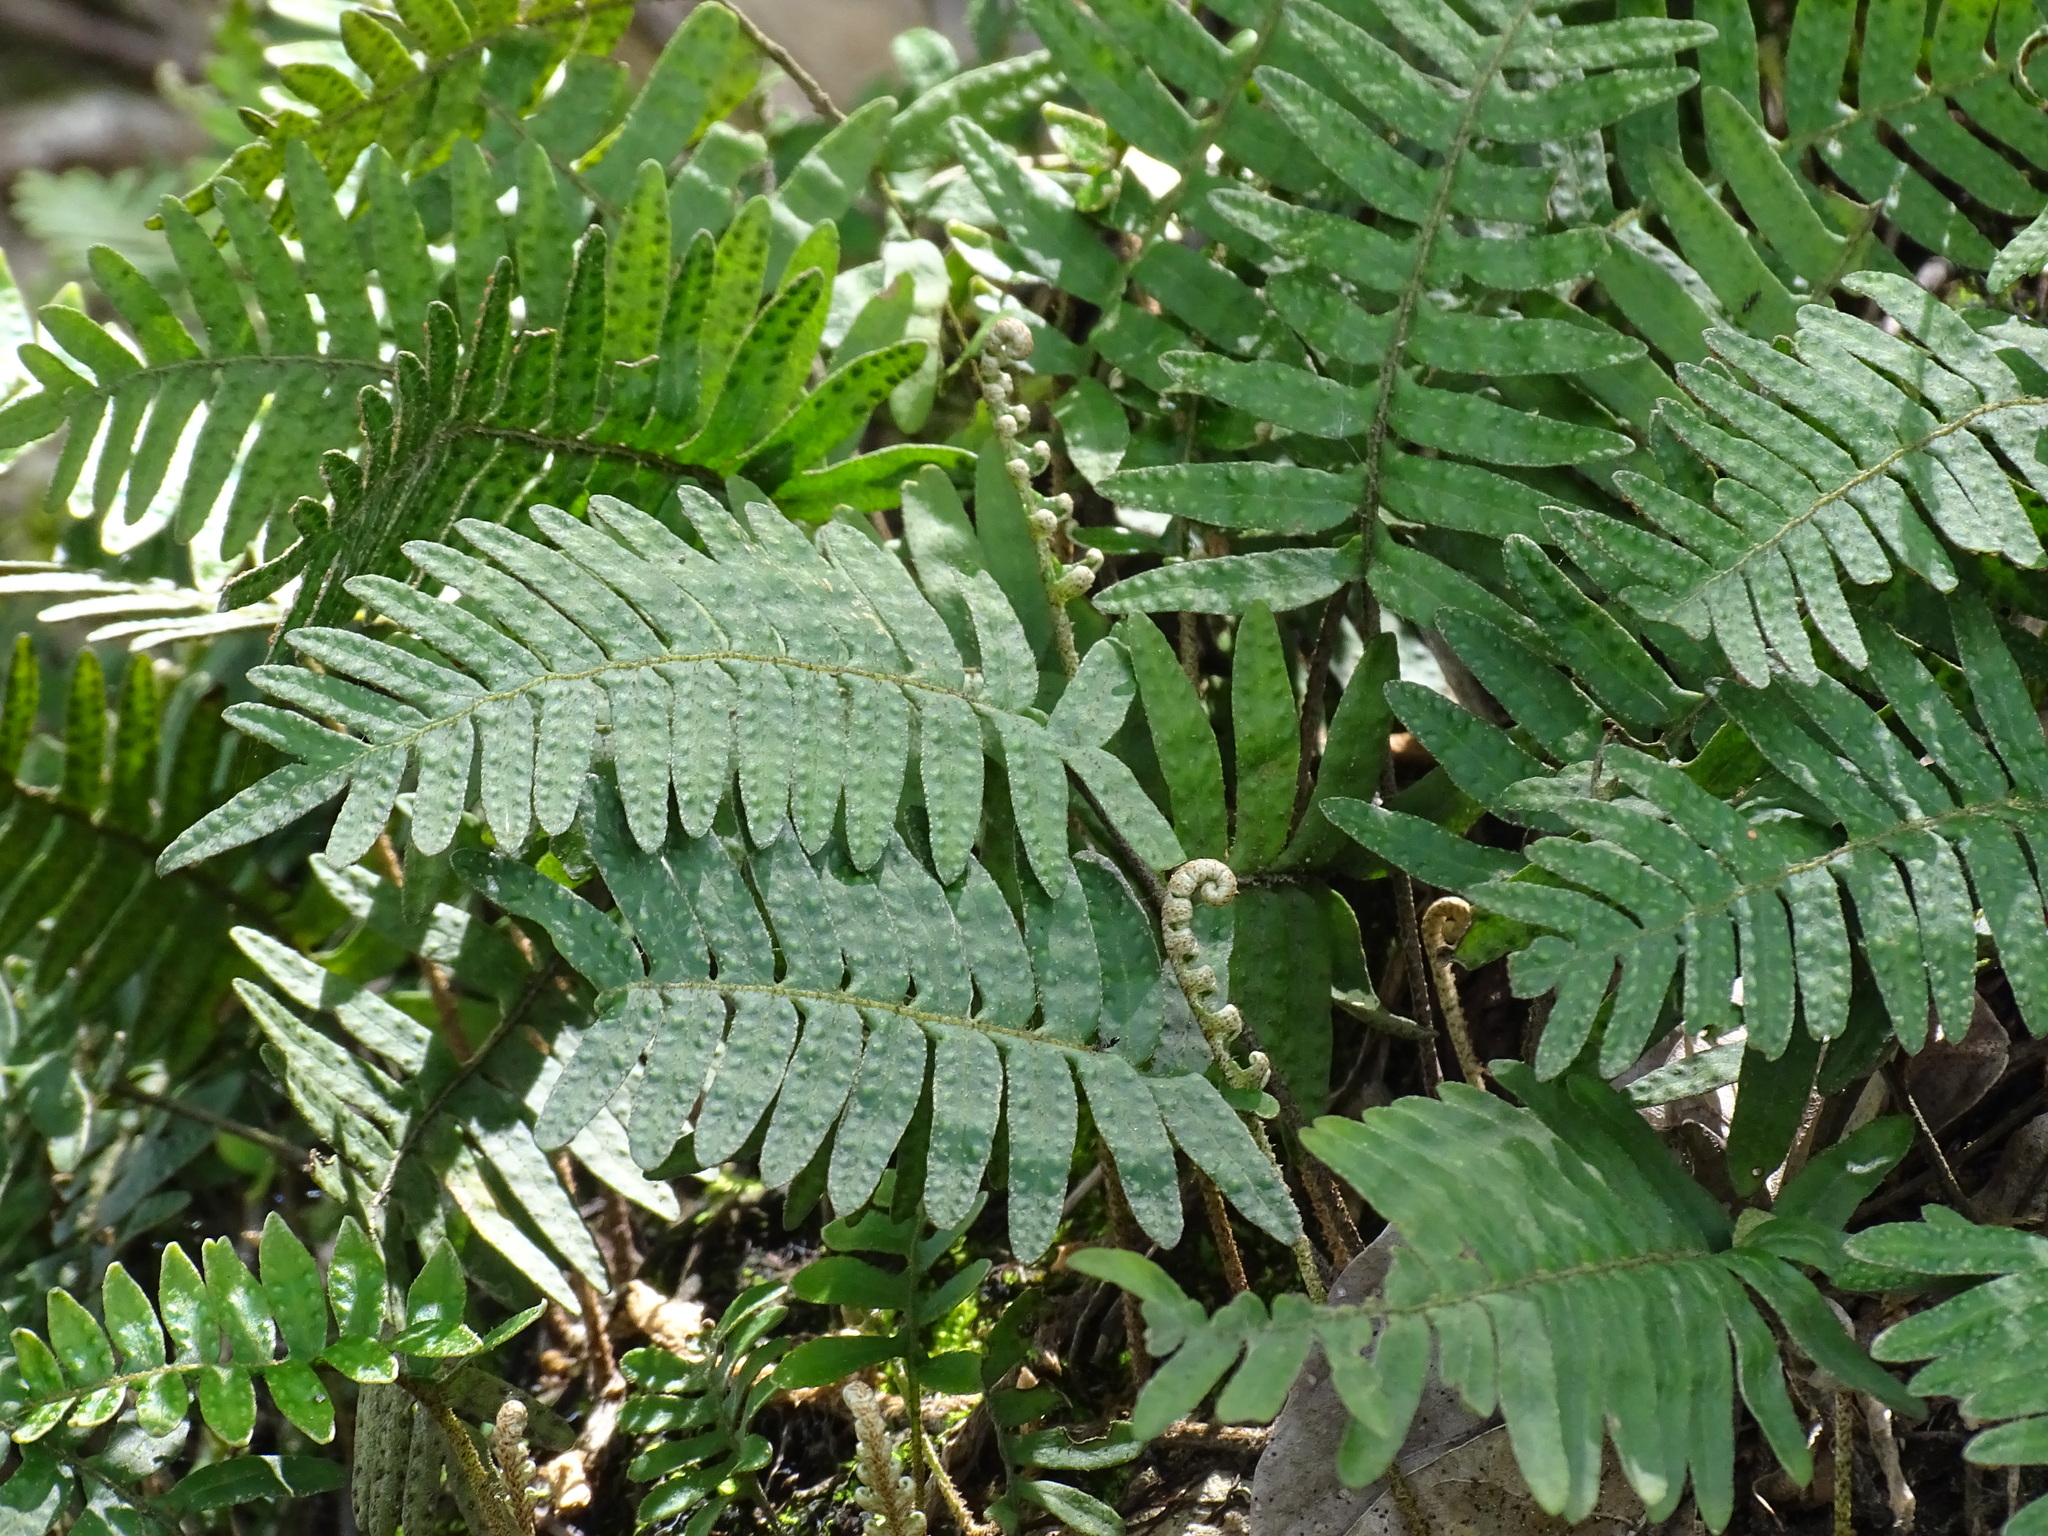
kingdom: Plantae
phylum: Tracheophyta
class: Polypodiopsida
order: Polypodiales
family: Polypodiaceae
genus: Pleopeltis
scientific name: Pleopeltis polypodioides
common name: Resurrection fern
